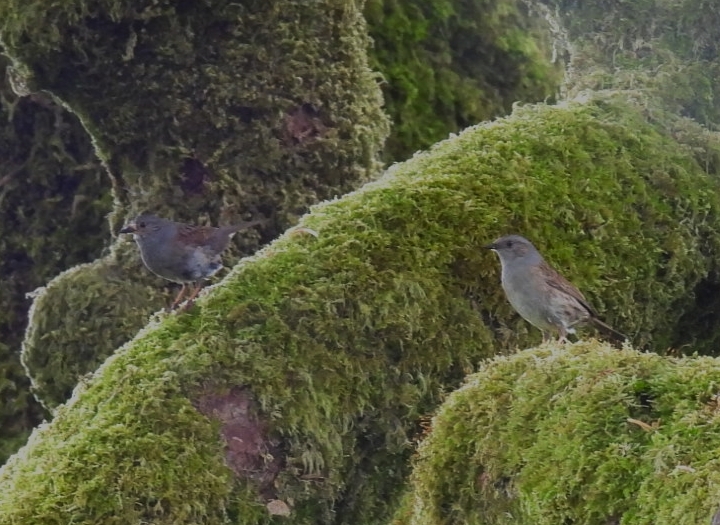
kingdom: Animalia
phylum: Chordata
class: Aves
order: Passeriformes
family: Prunellidae
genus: Prunella
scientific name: Prunella modularis
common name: Dunnock
